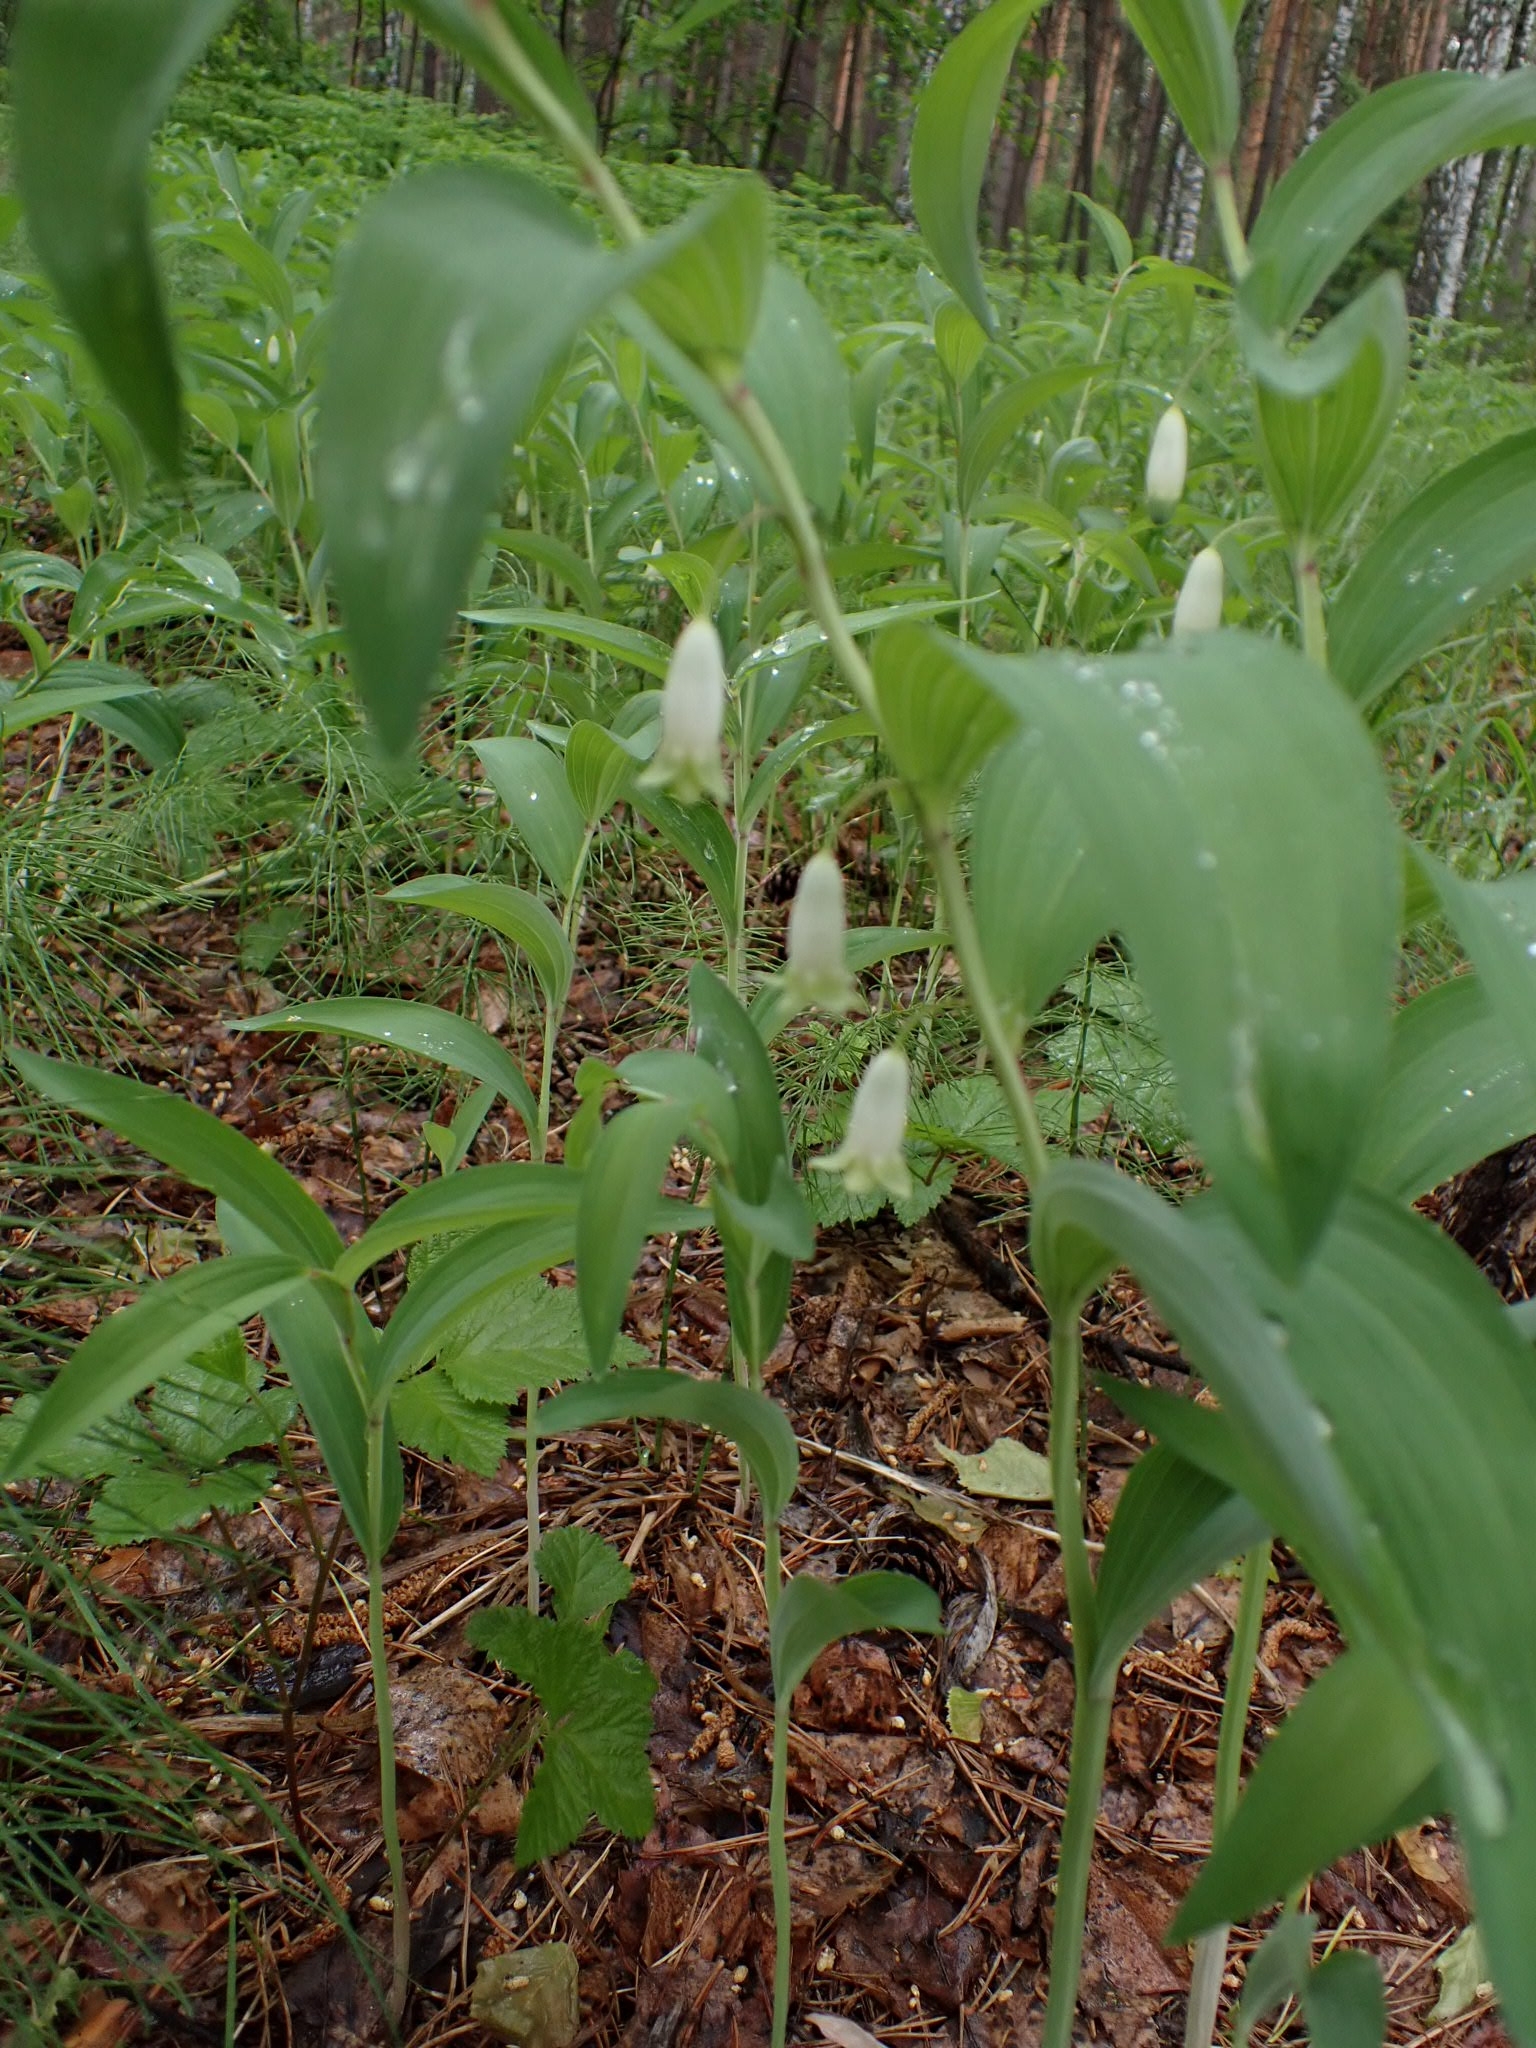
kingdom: Plantae
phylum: Tracheophyta
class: Liliopsida
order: Asparagales
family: Asparagaceae
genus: Polygonatum
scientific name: Polygonatum odoratum
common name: Angular solomon's-seal
